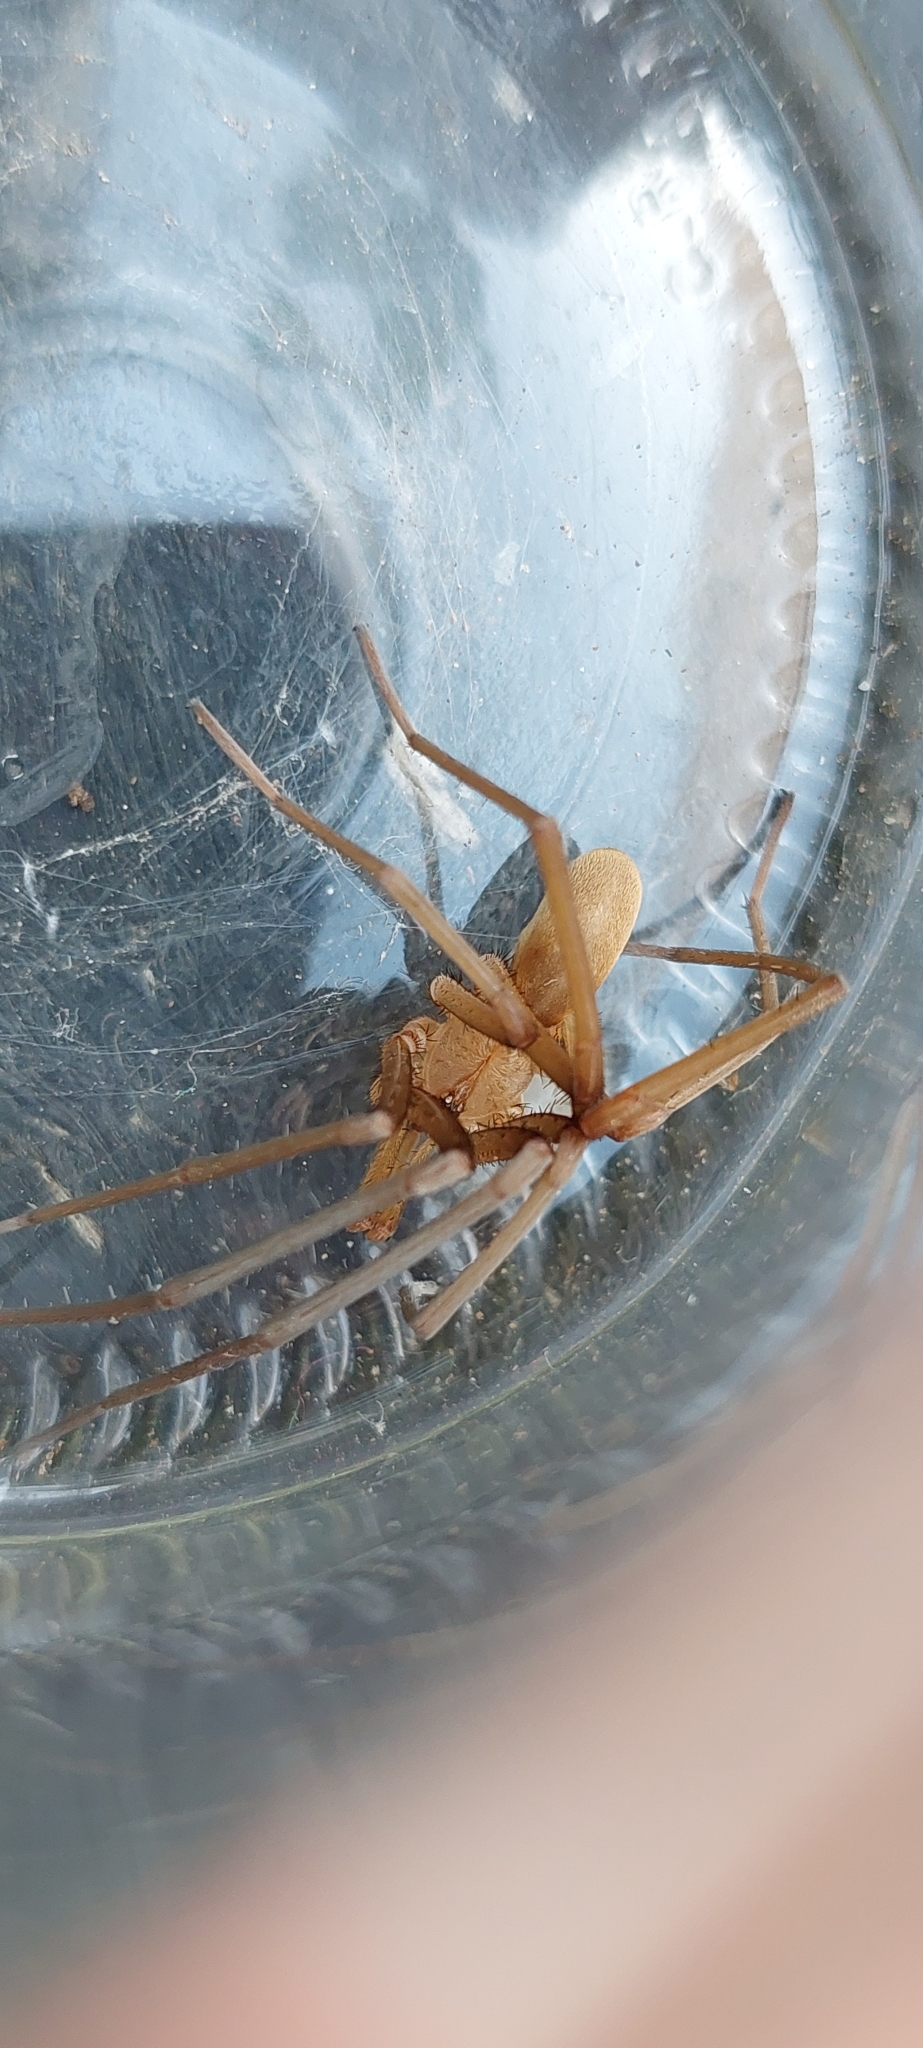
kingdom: Animalia
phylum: Arthropoda
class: Arachnida
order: Araneae
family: Filistatidae
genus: Kukulcania
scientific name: Kukulcania hibernalis
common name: Crevice weaver
